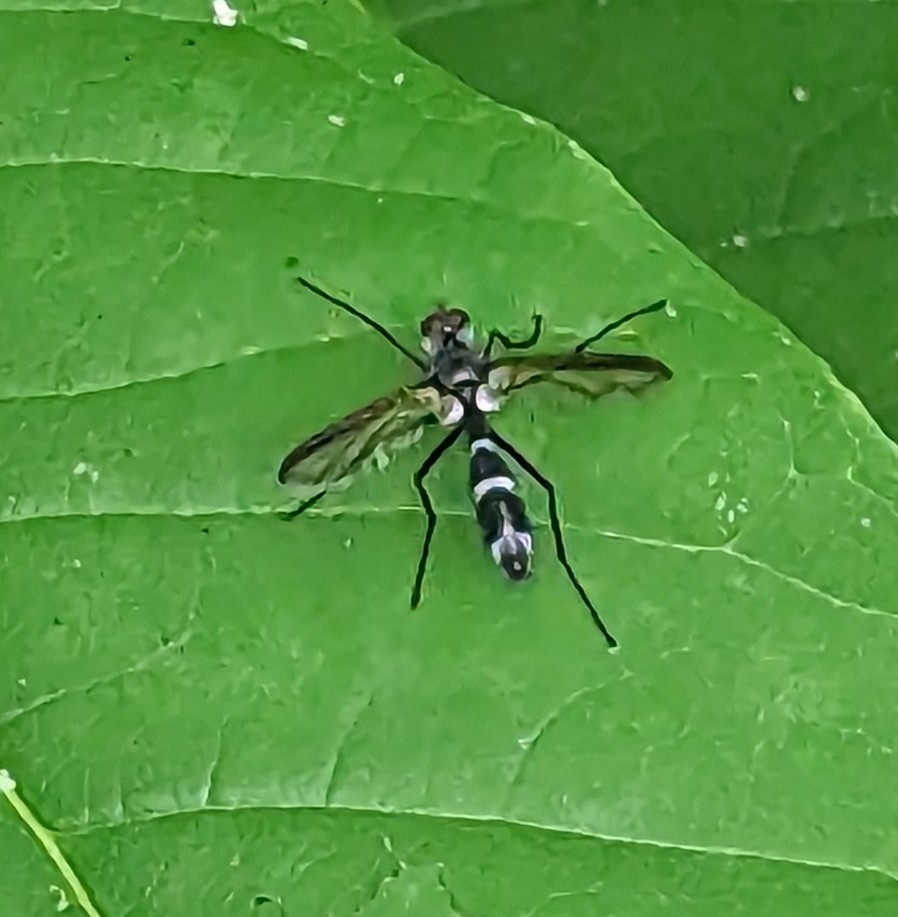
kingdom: Animalia
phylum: Arthropoda
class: Insecta
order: Diptera
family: Tachinidae
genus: Cordyligaster
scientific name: Cordyligaster septentrionalis
